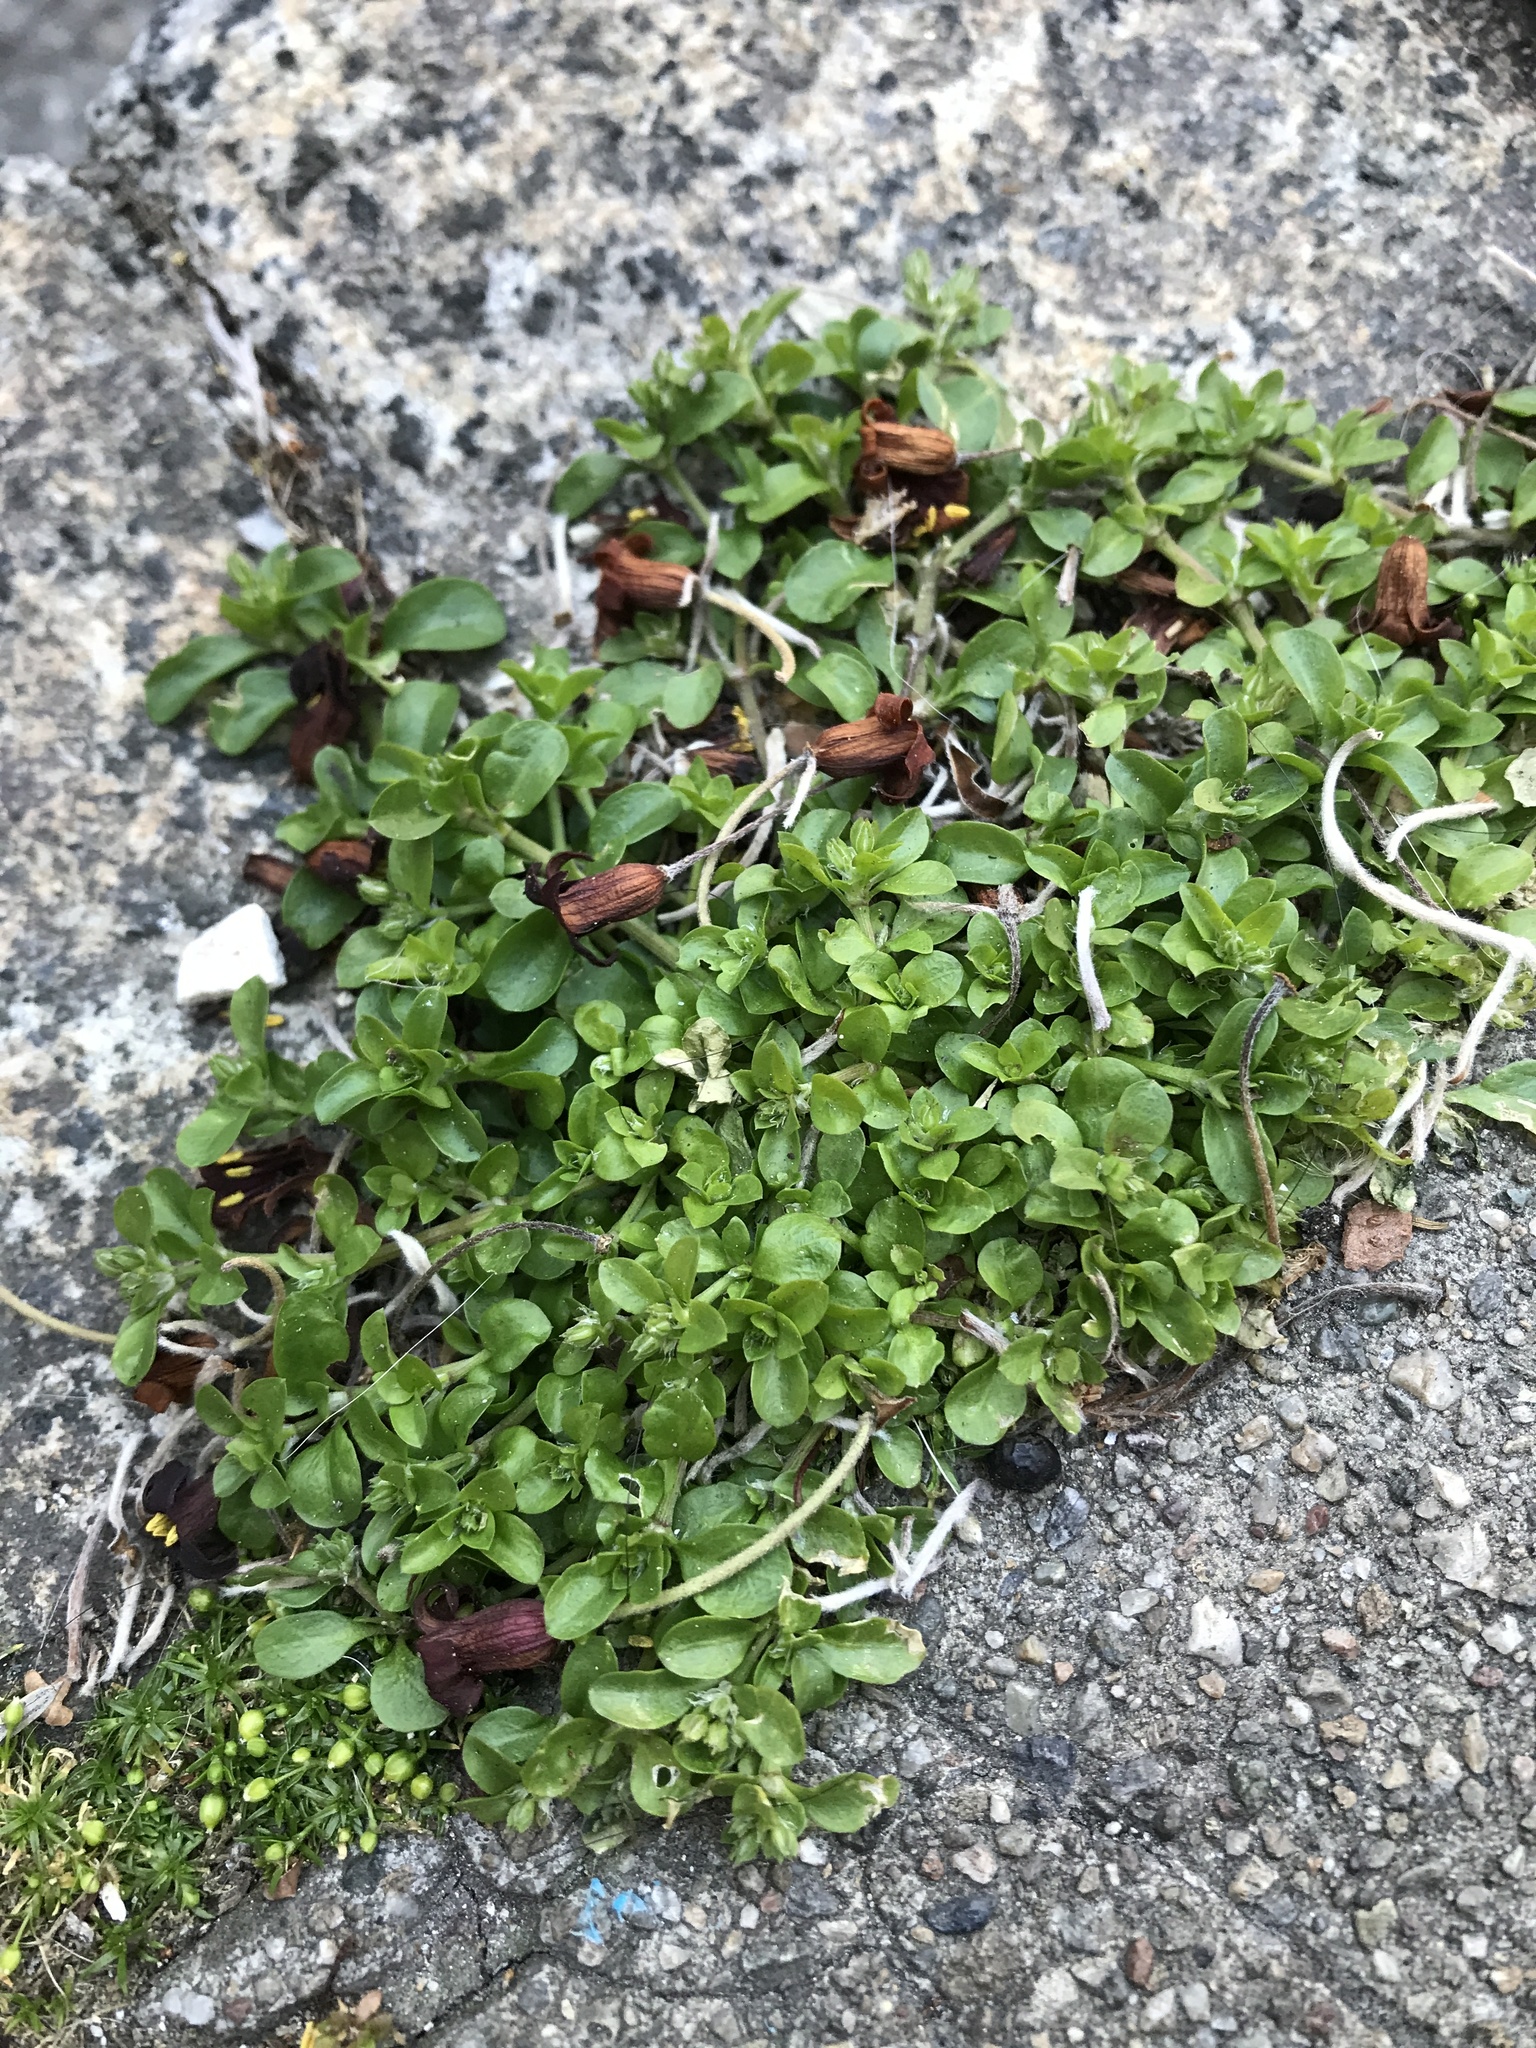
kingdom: Plantae
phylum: Tracheophyta
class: Magnoliopsida
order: Caryophyllales
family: Caryophyllaceae
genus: Polycarpon
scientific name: Polycarpon tetraphyllum
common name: Four-leaved all-seed
